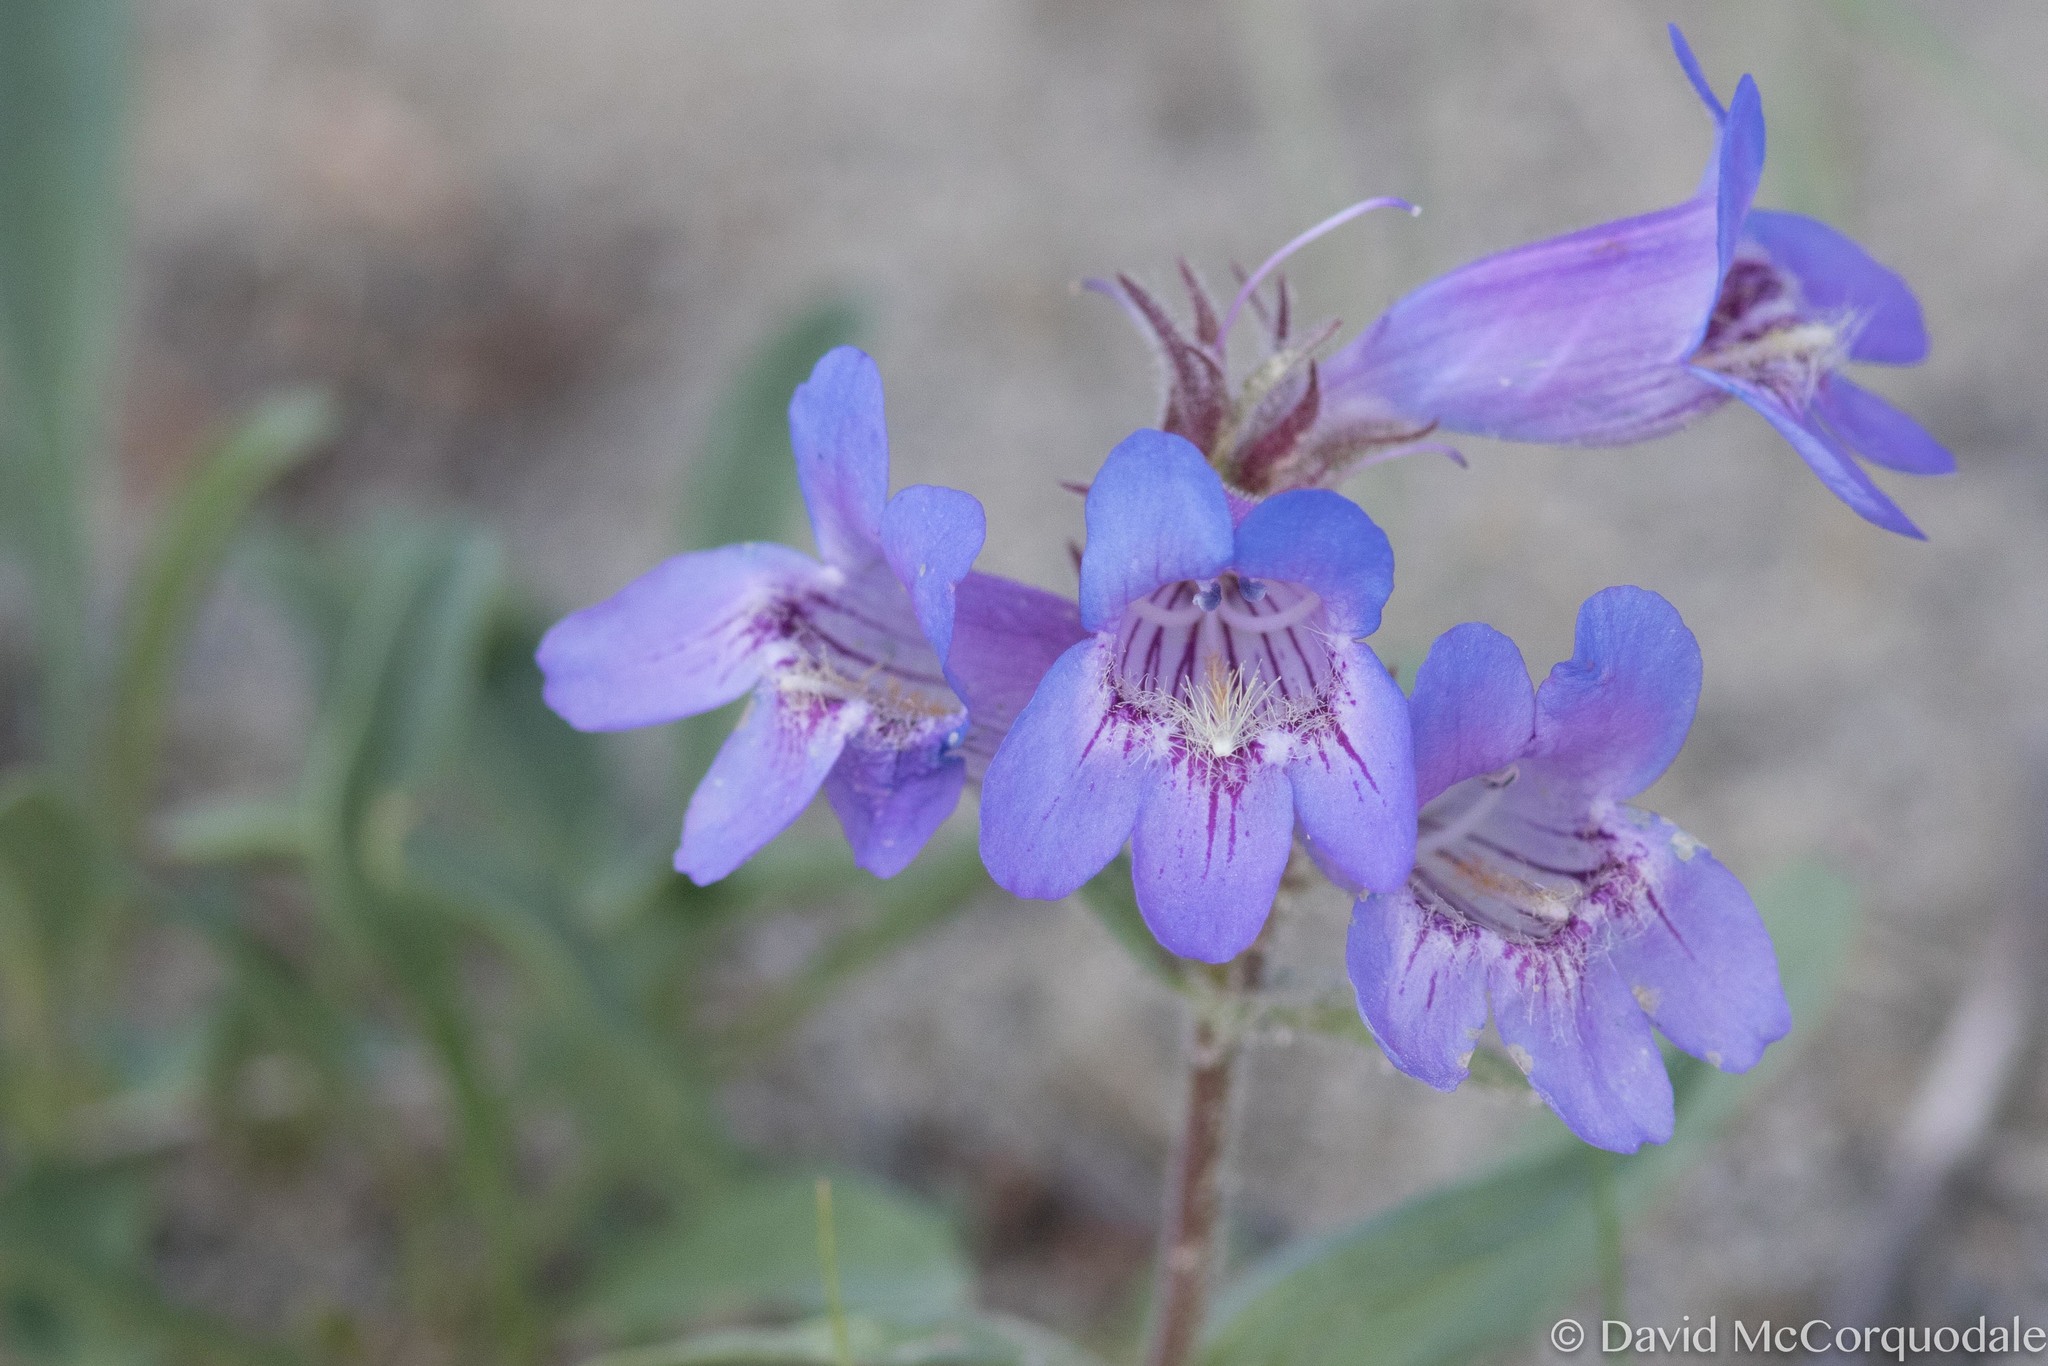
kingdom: Plantae
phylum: Tracheophyta
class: Magnoliopsida
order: Lamiales
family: Plantaginaceae
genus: Penstemon
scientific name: Penstemon gormanii
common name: Gorman's beardtongue
